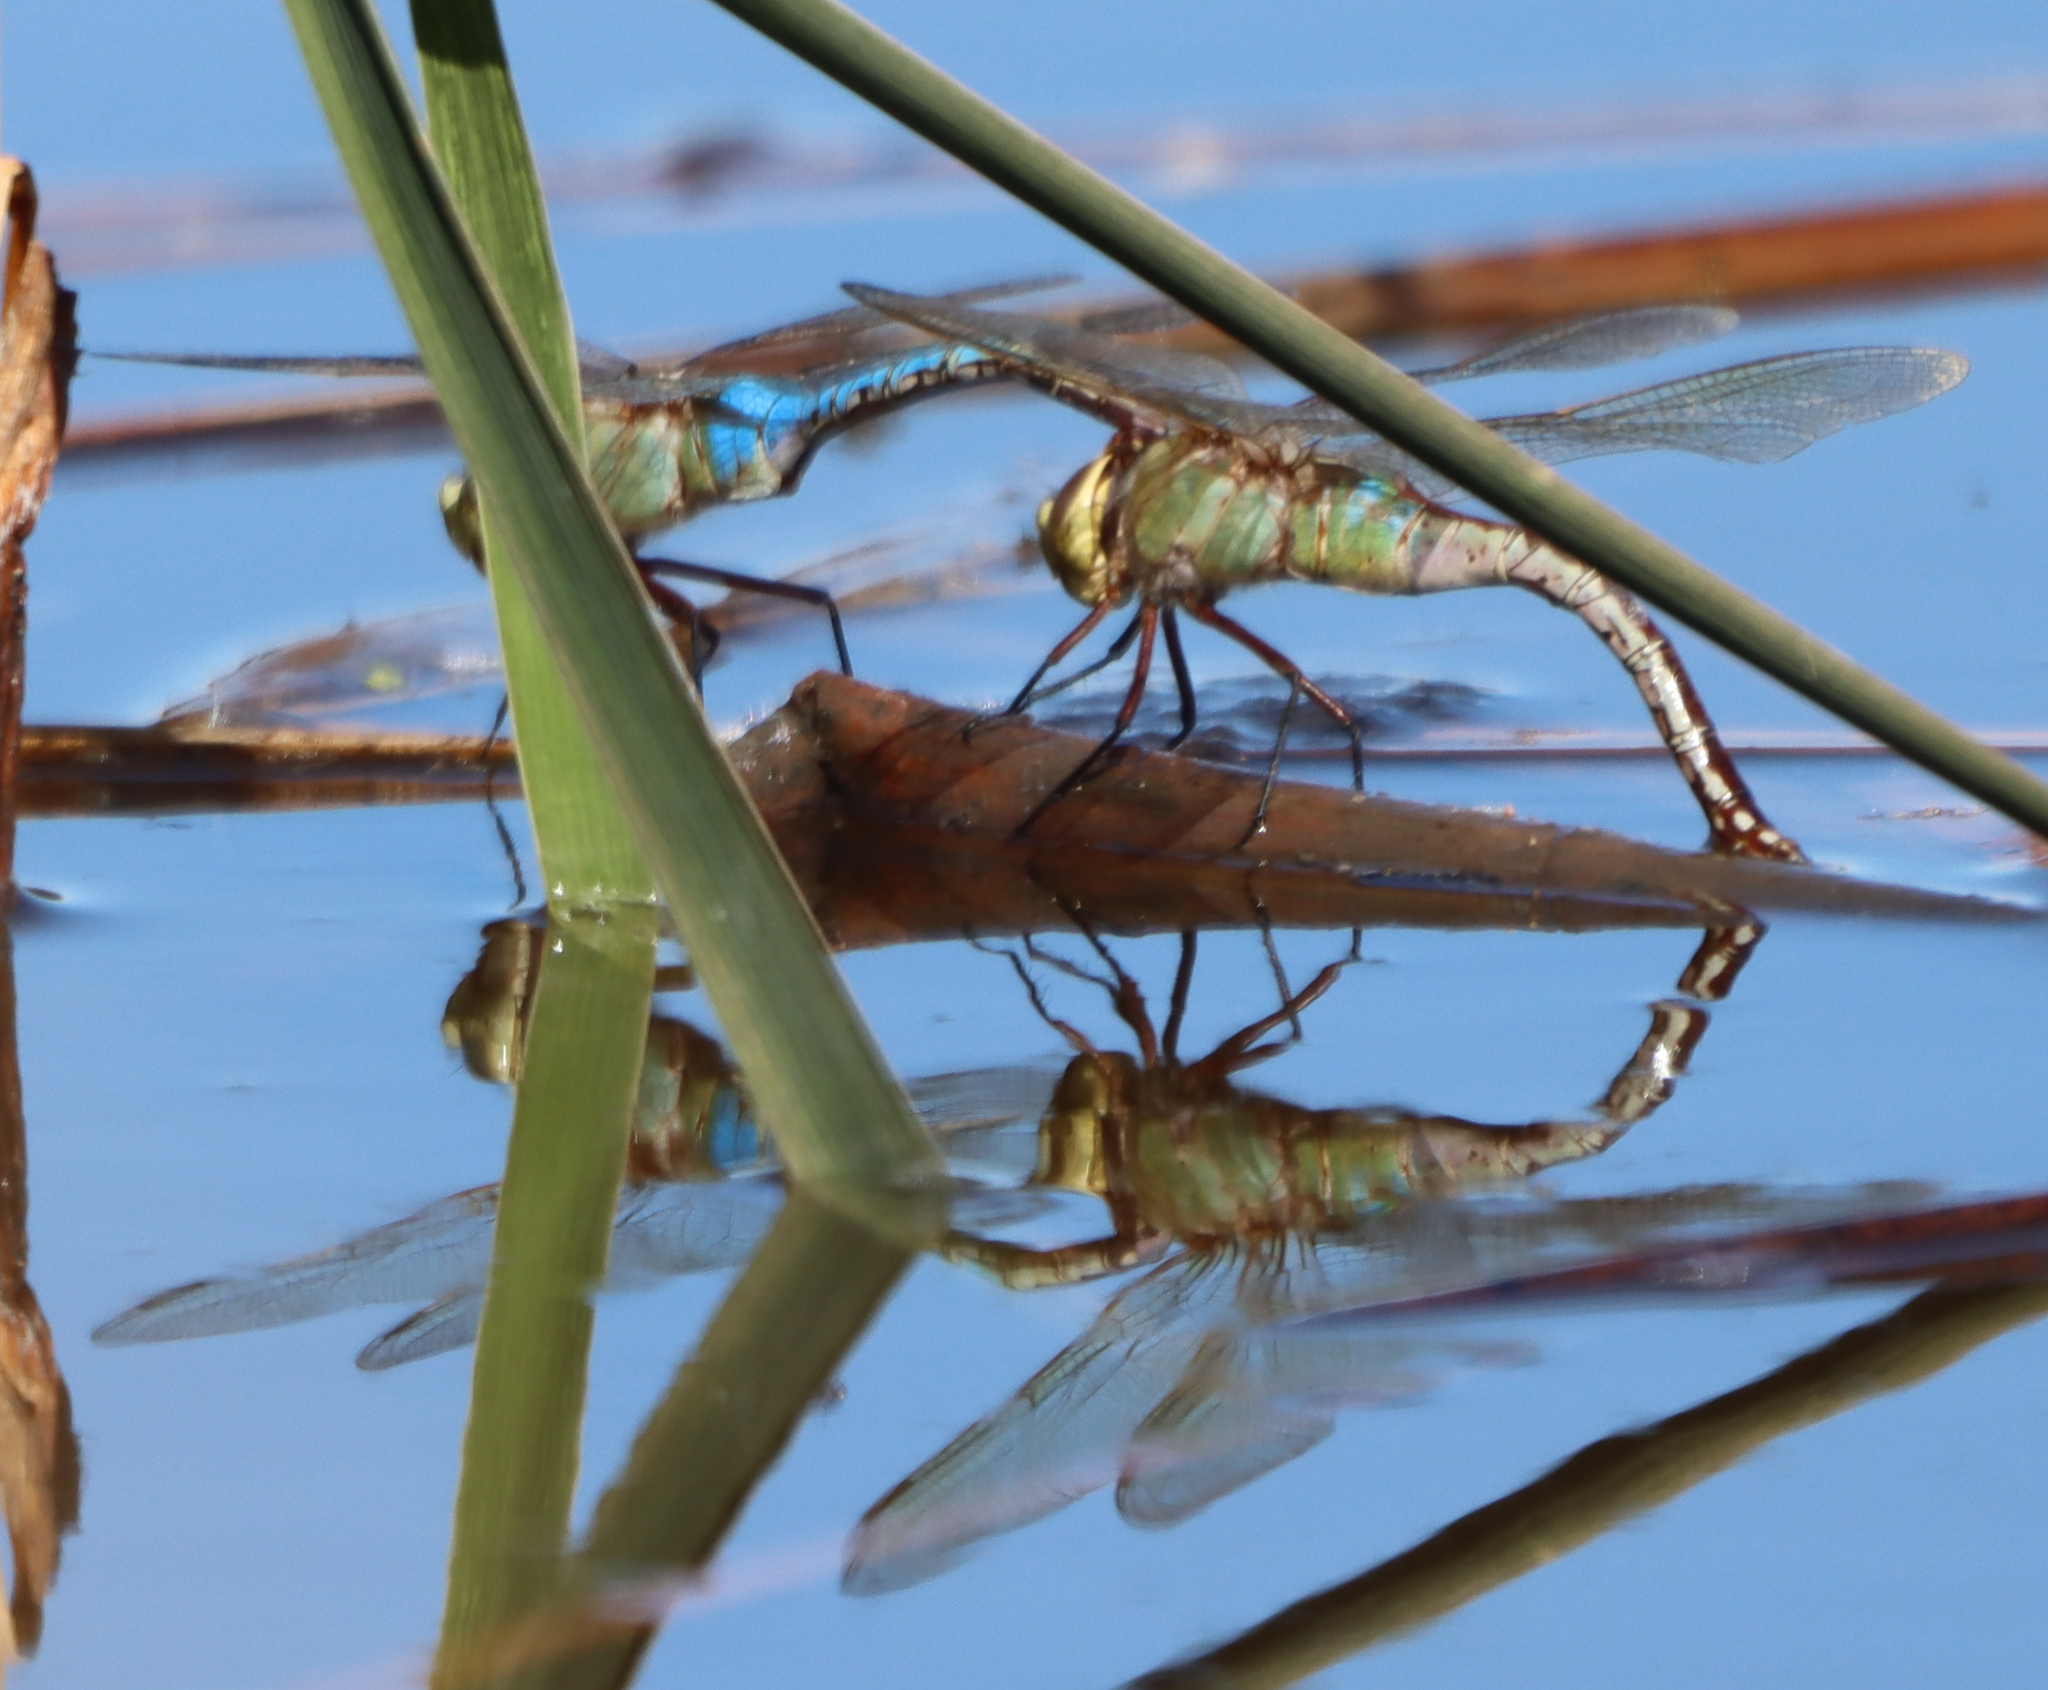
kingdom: Animalia
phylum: Arthropoda
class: Insecta
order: Odonata
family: Aeshnidae
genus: Anax
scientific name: Anax junius
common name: Common green darner
